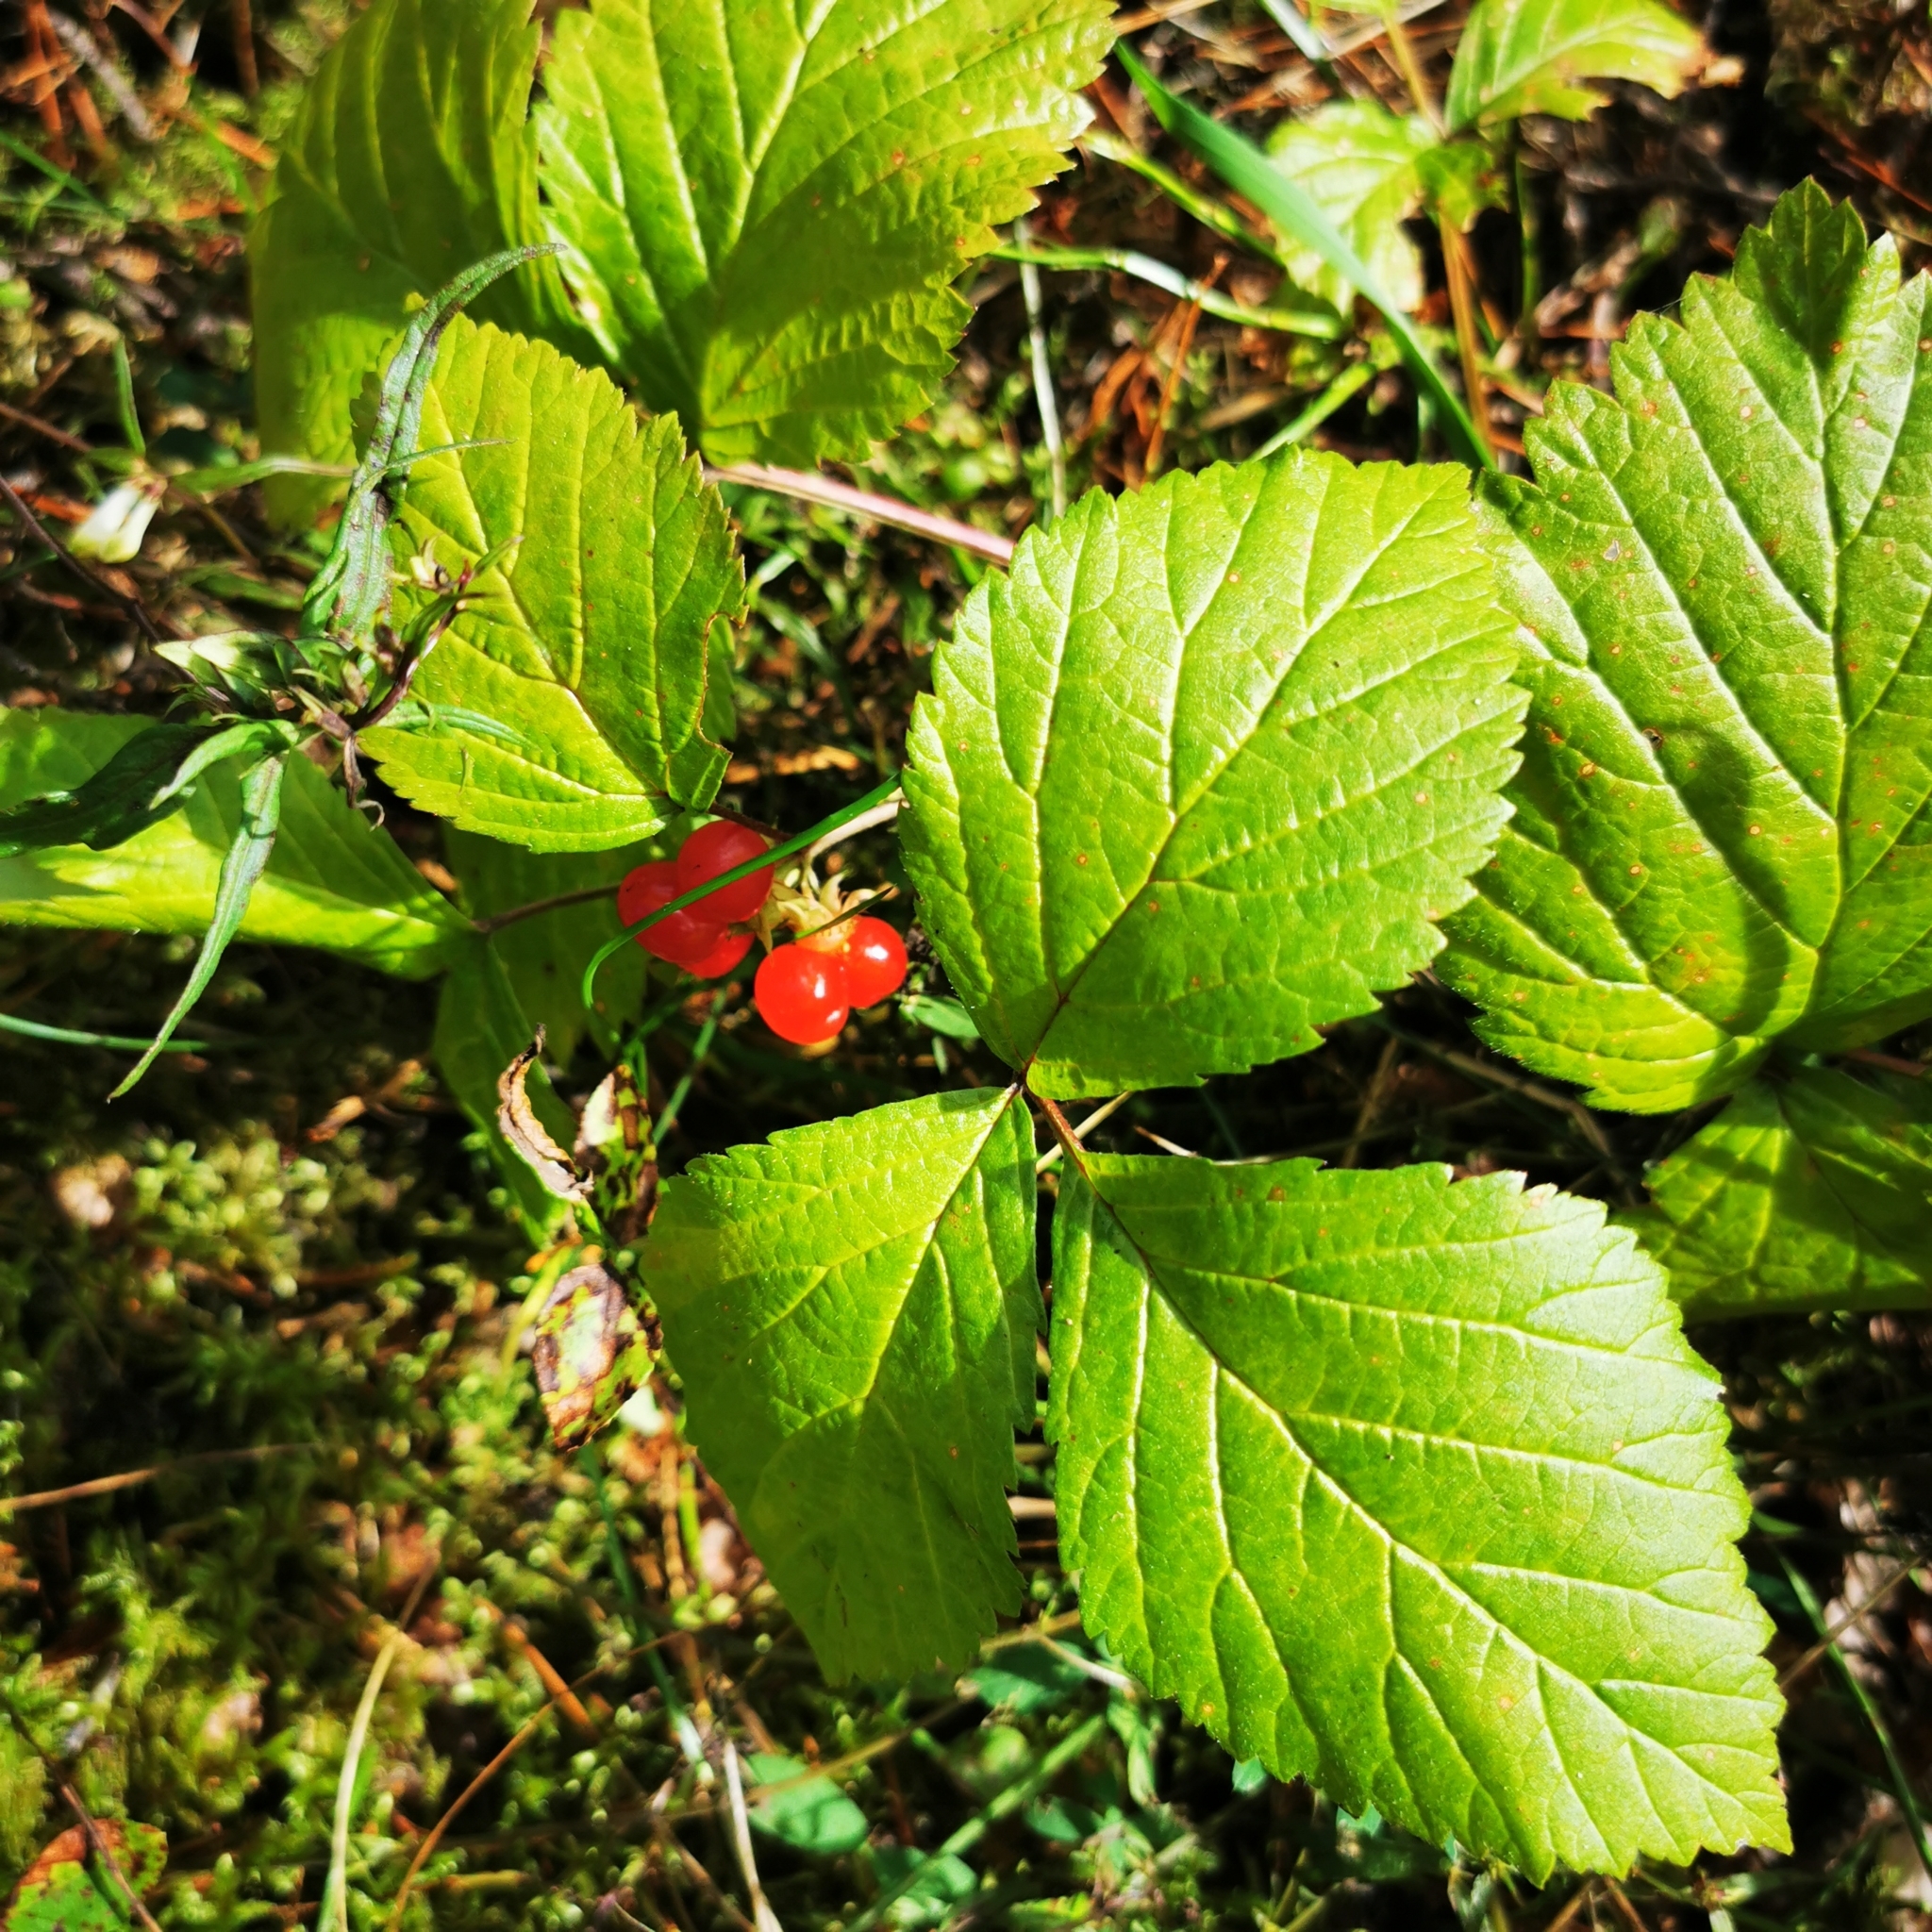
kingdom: Plantae
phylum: Tracheophyta
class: Magnoliopsida
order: Rosales
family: Rosaceae
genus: Rubus
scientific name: Rubus saxatilis
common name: Stone bramble
